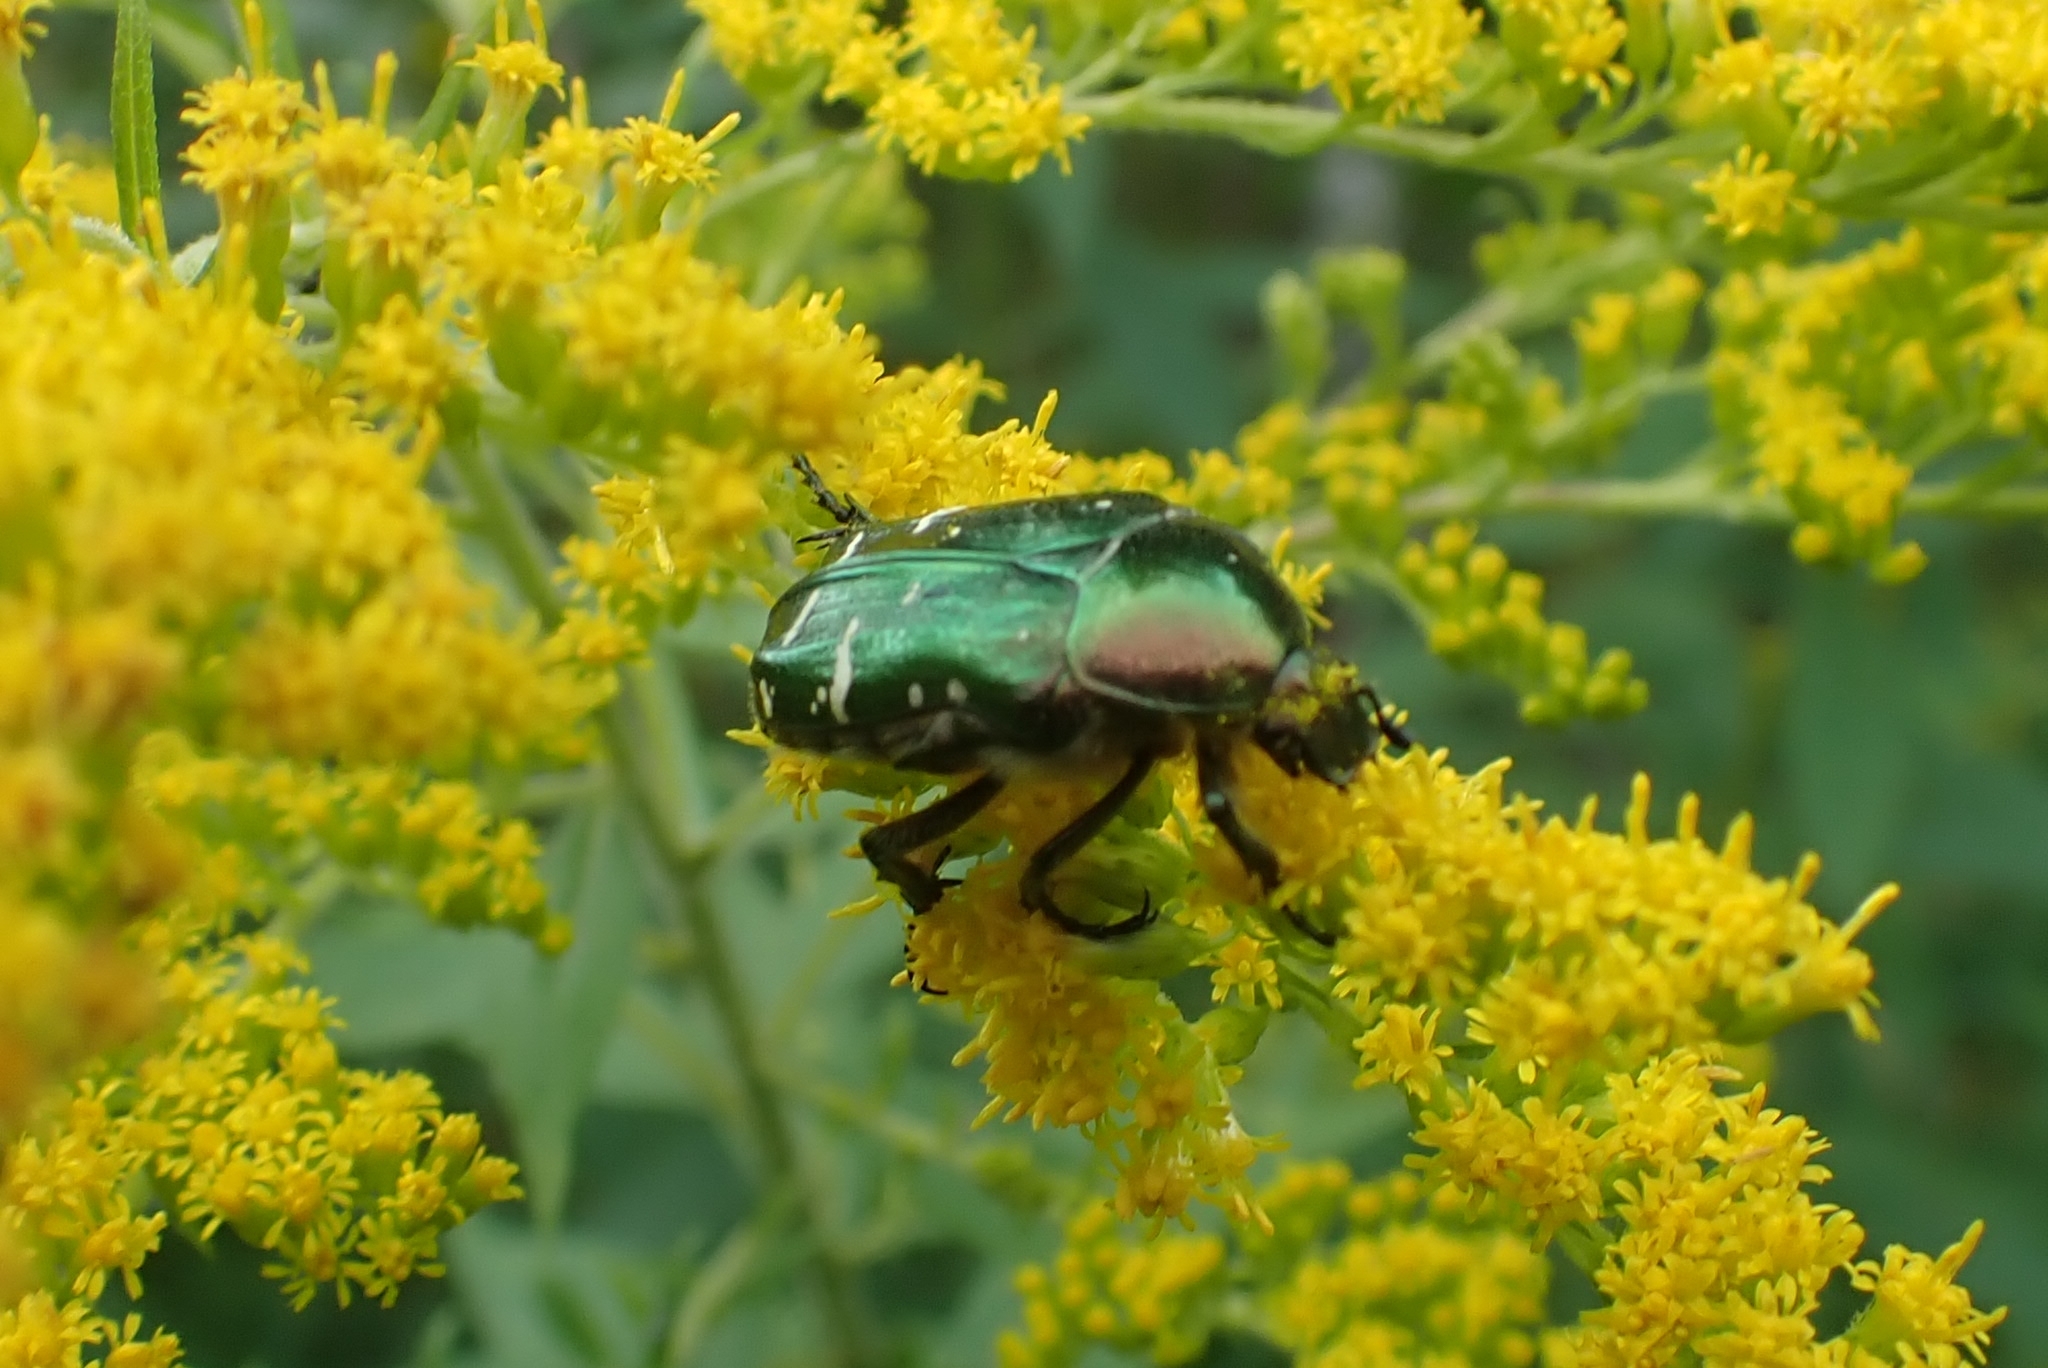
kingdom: Animalia
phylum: Arthropoda
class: Insecta
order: Coleoptera
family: Scarabaeidae
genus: Cetonia
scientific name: Cetonia aurata
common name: Rose chafer
